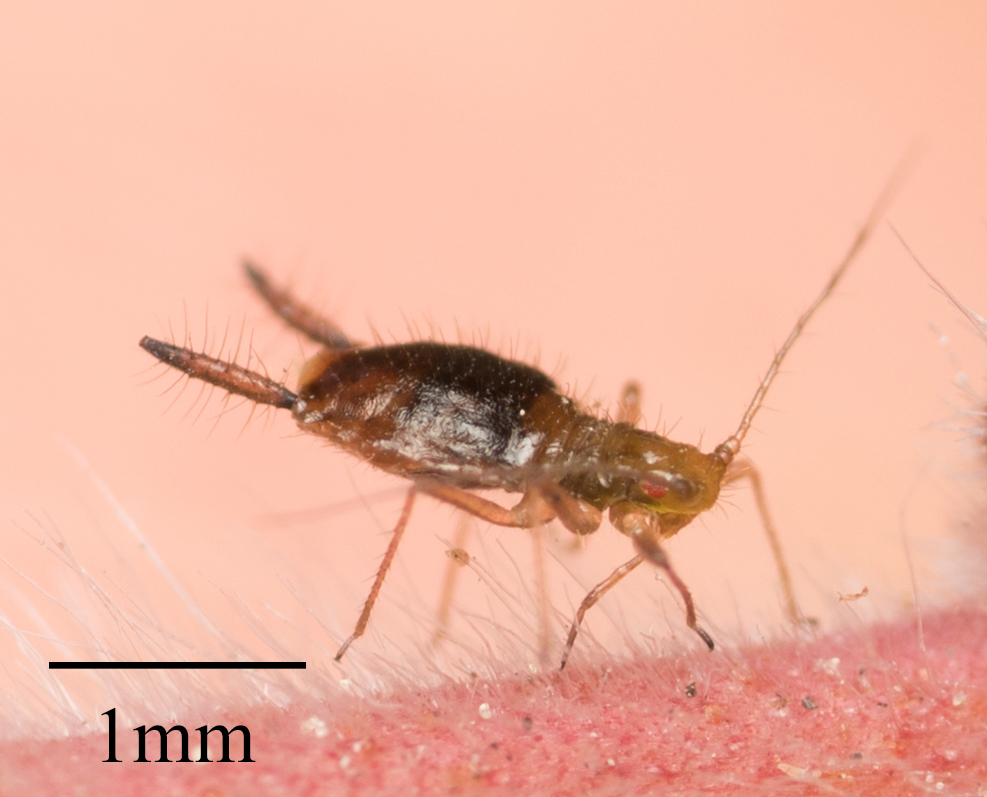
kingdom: Animalia
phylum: Arthropoda
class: Insecta
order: Hemiptera
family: Aphididae
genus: Greenidea
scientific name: Greenidea psidii
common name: Guava aphid
